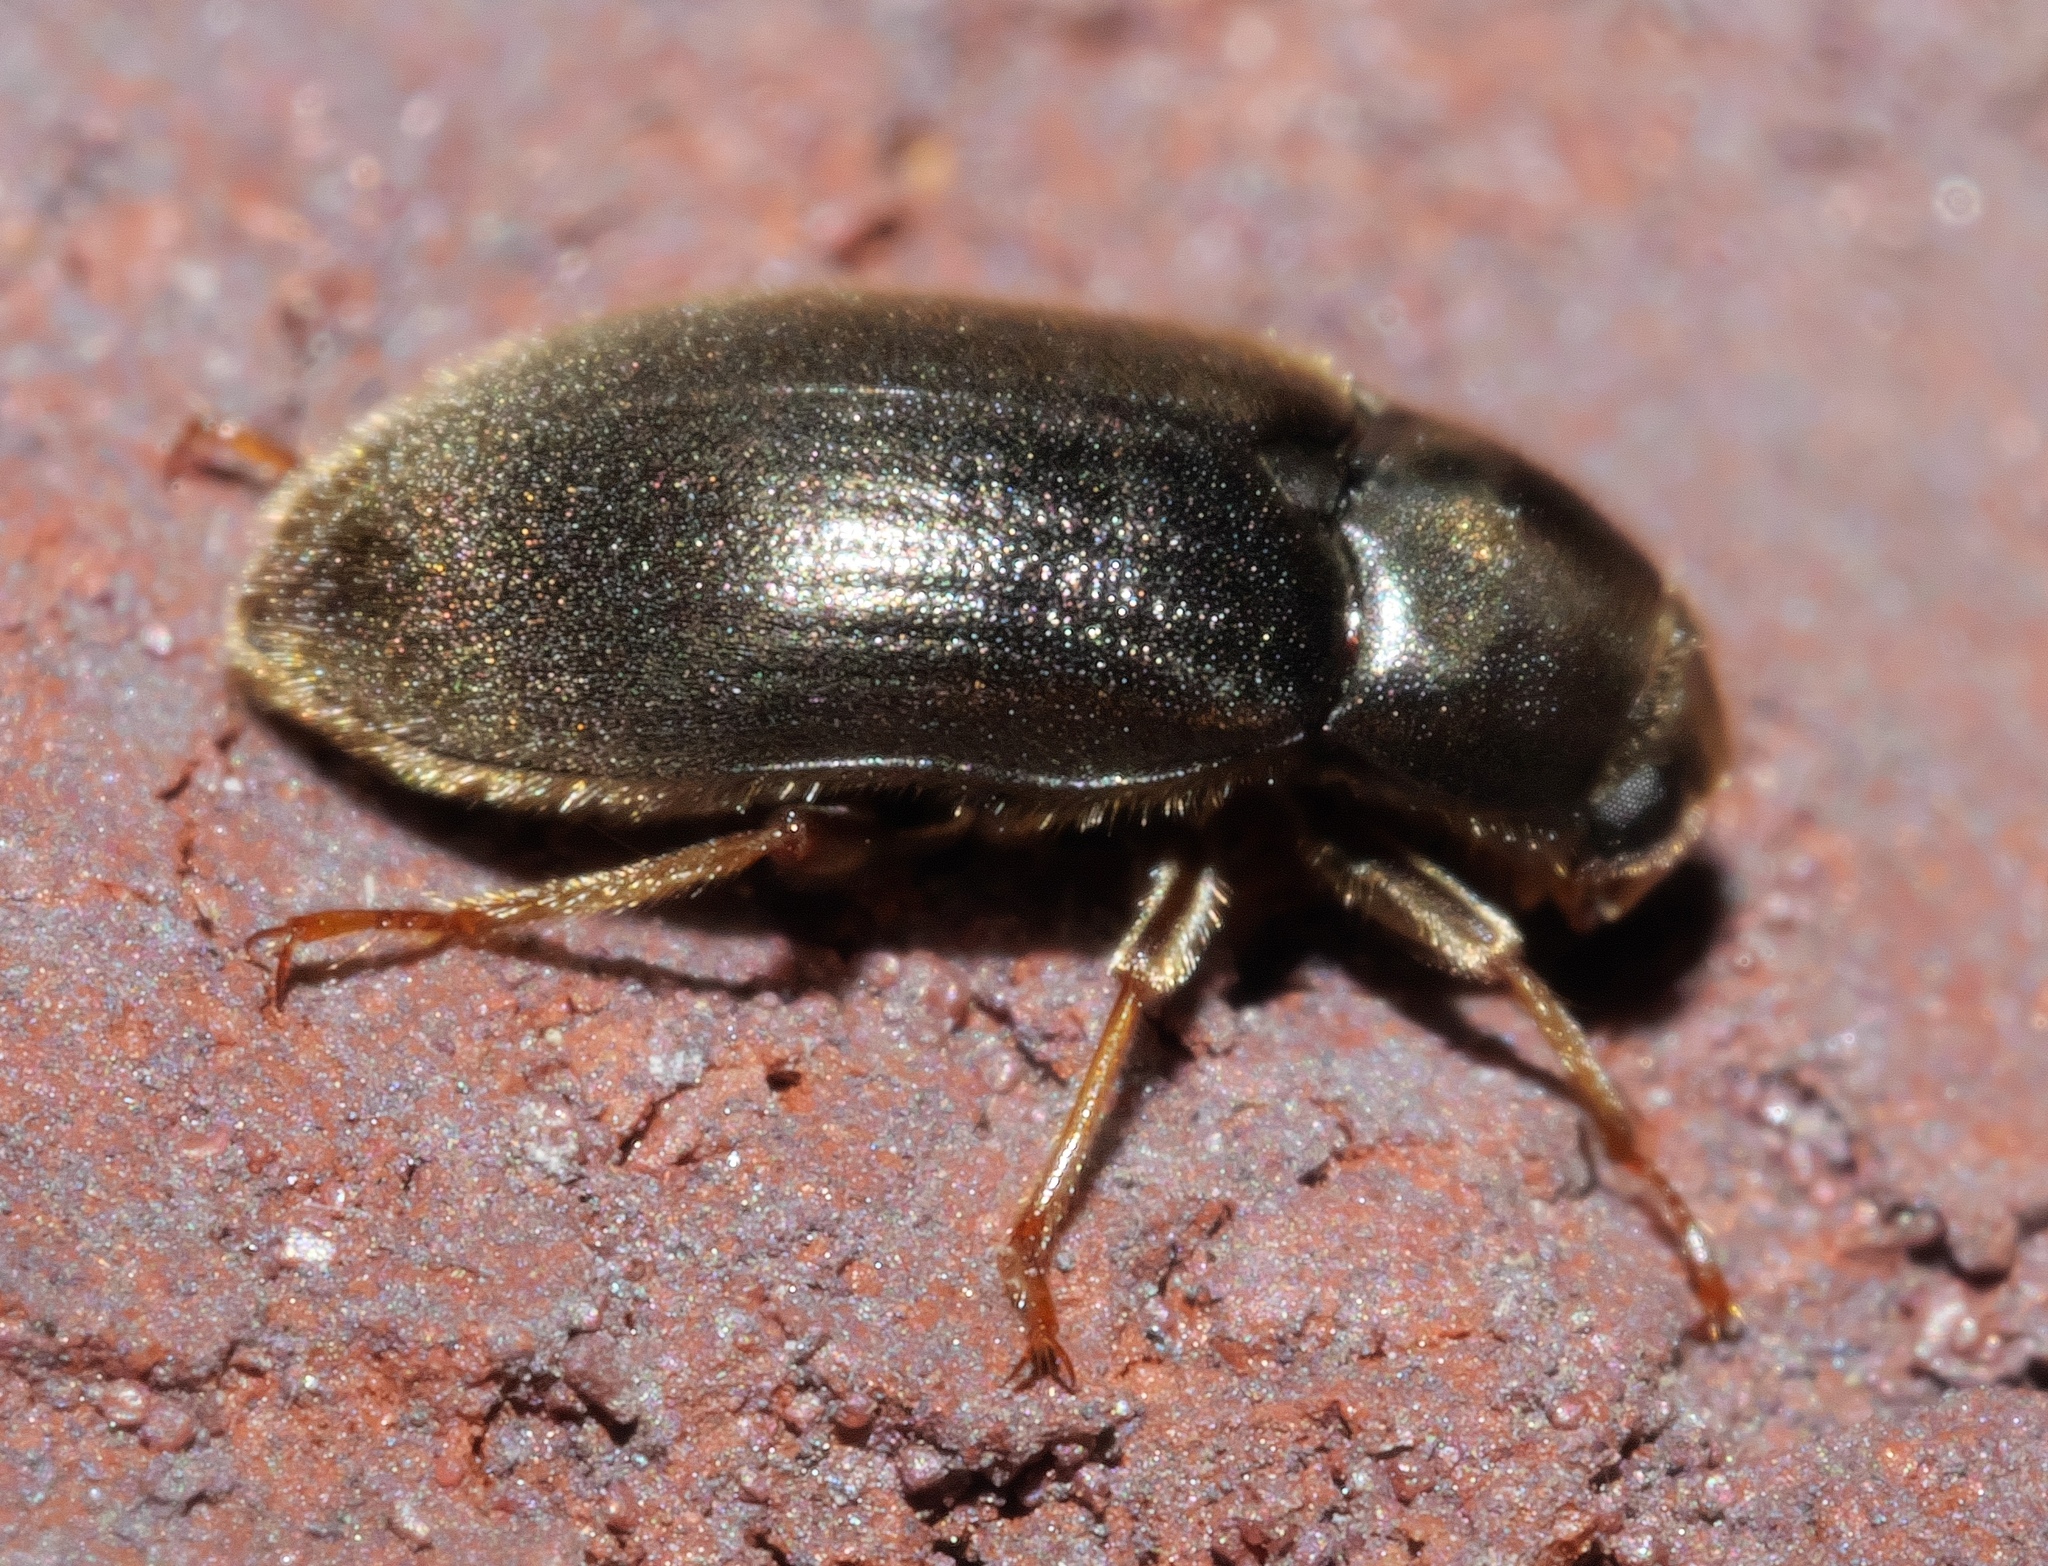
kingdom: Animalia
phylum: Arthropoda
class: Insecta
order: Coleoptera
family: Dryopidae
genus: Pelonomus
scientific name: Pelonomus obscurus
